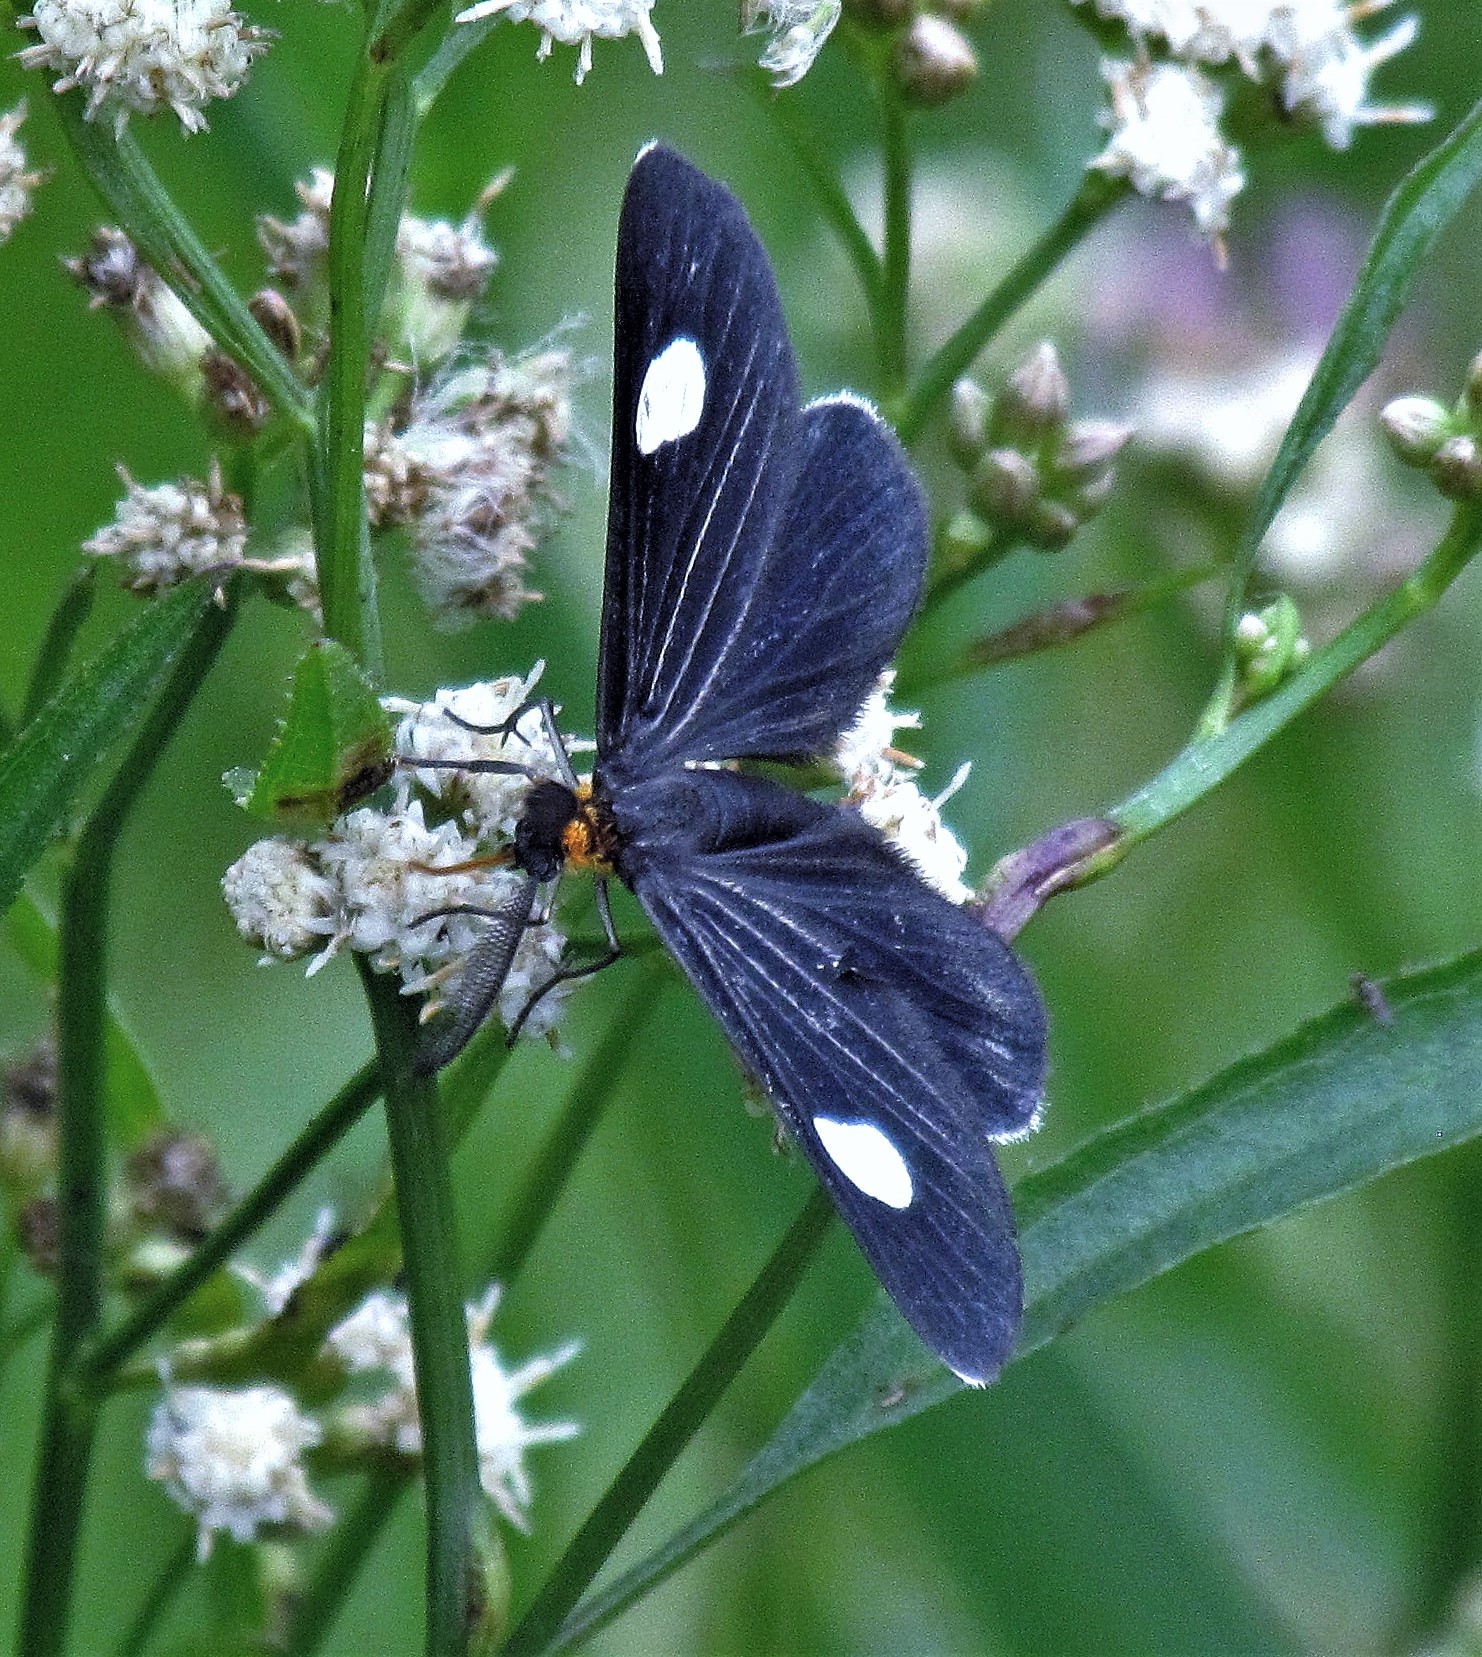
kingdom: Animalia
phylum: Arthropoda
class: Insecta
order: Lepidoptera
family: Geometridae
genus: Melanchroia
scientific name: Melanchroia aterea
